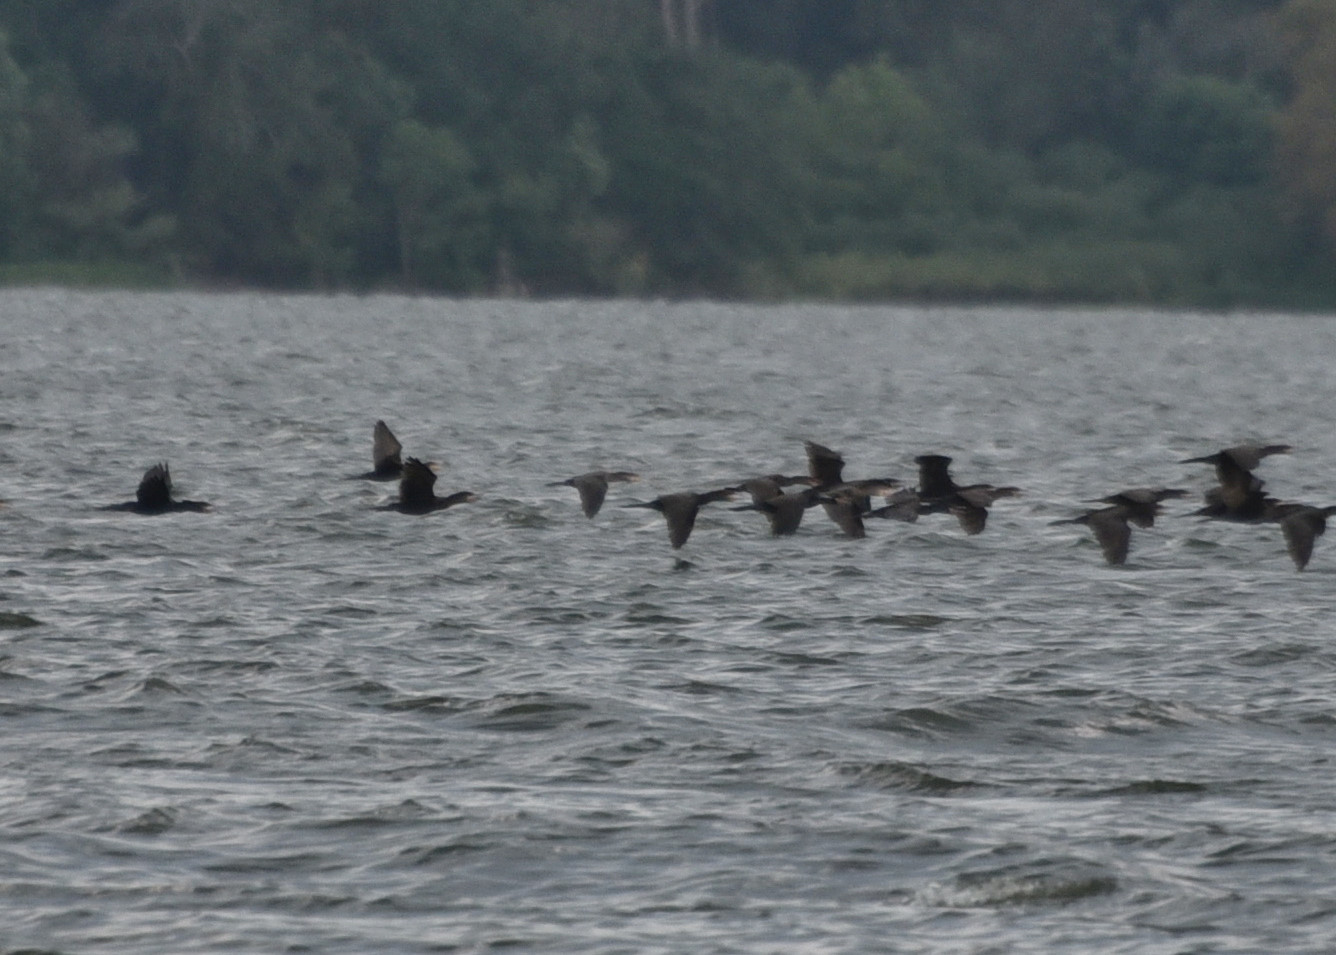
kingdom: Animalia
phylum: Chordata
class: Aves
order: Suliformes
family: Phalacrocoracidae
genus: Phalacrocorax
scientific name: Phalacrocorax brasilianus
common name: Neotropic cormorant
